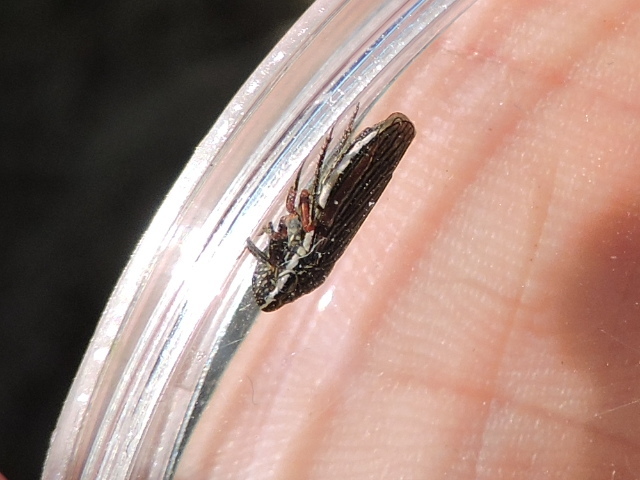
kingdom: Animalia
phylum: Arthropoda
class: Insecta
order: Hemiptera
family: Cicadellidae
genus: Cuerna
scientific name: Cuerna costalis
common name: Lateral-lined sharpshooter
